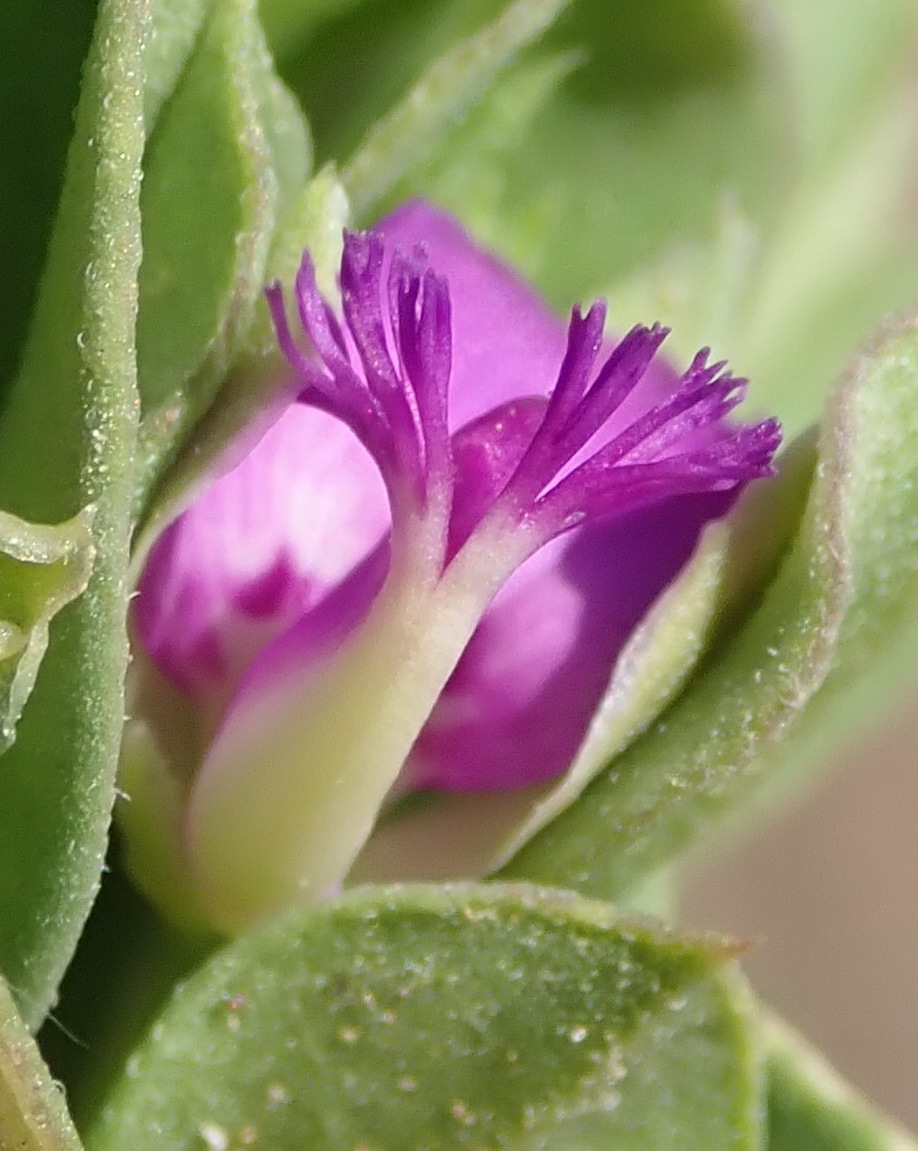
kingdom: Plantae
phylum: Tracheophyta
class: Magnoliopsida
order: Fabales
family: Polygalaceae
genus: Polygala
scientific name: Polygala transvaalensis
